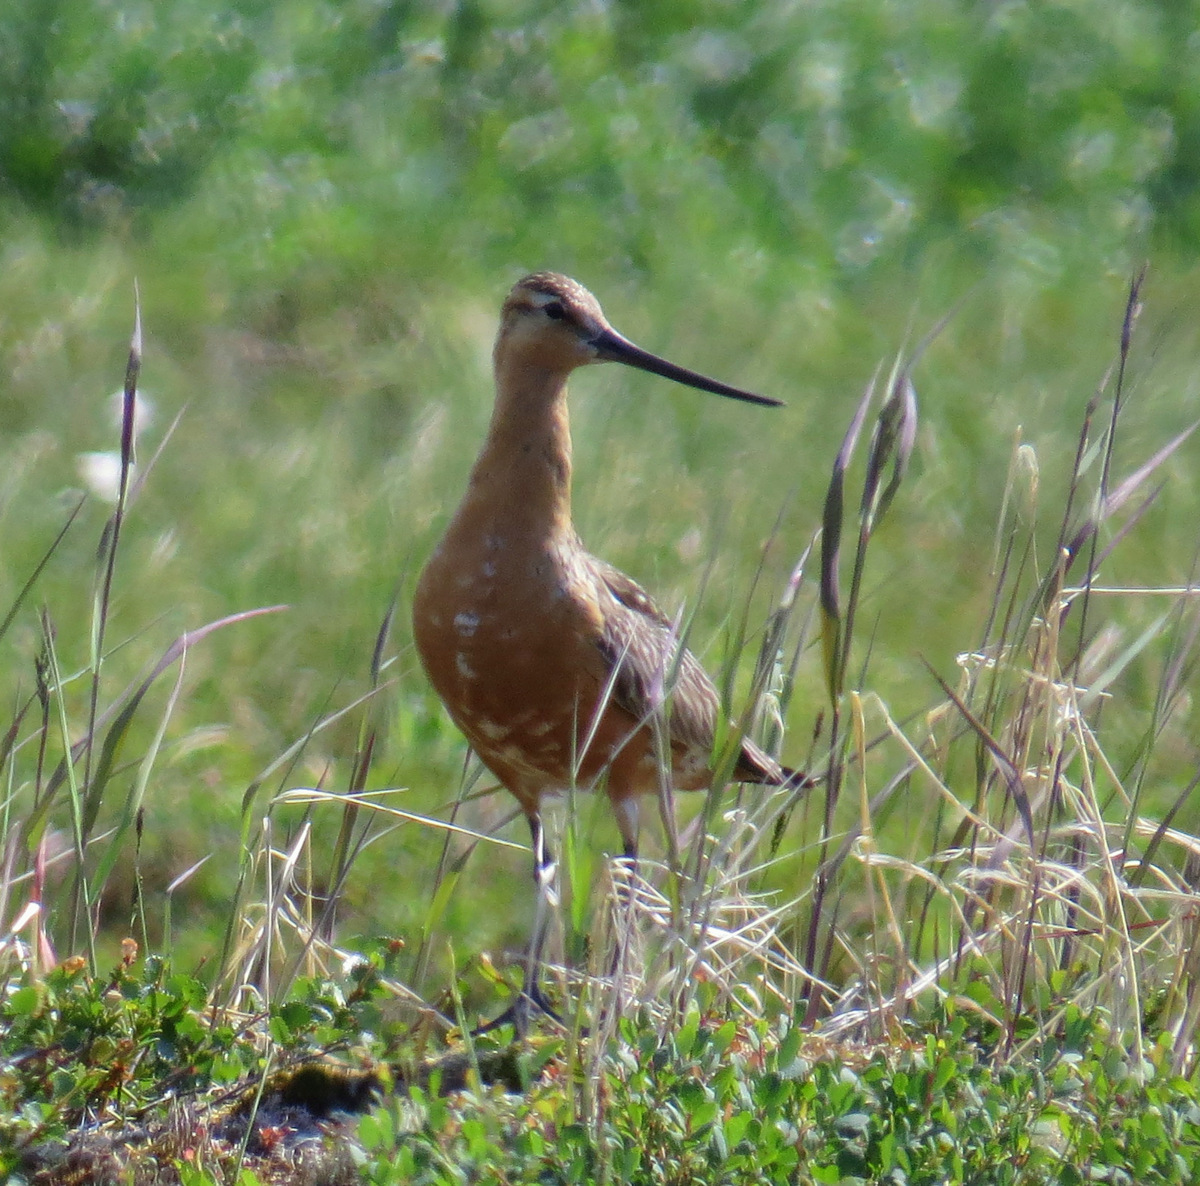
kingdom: Animalia
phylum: Chordata
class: Aves
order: Charadriiformes
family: Scolopacidae
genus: Limosa
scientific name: Limosa lapponica
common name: Bar-tailed godwit
